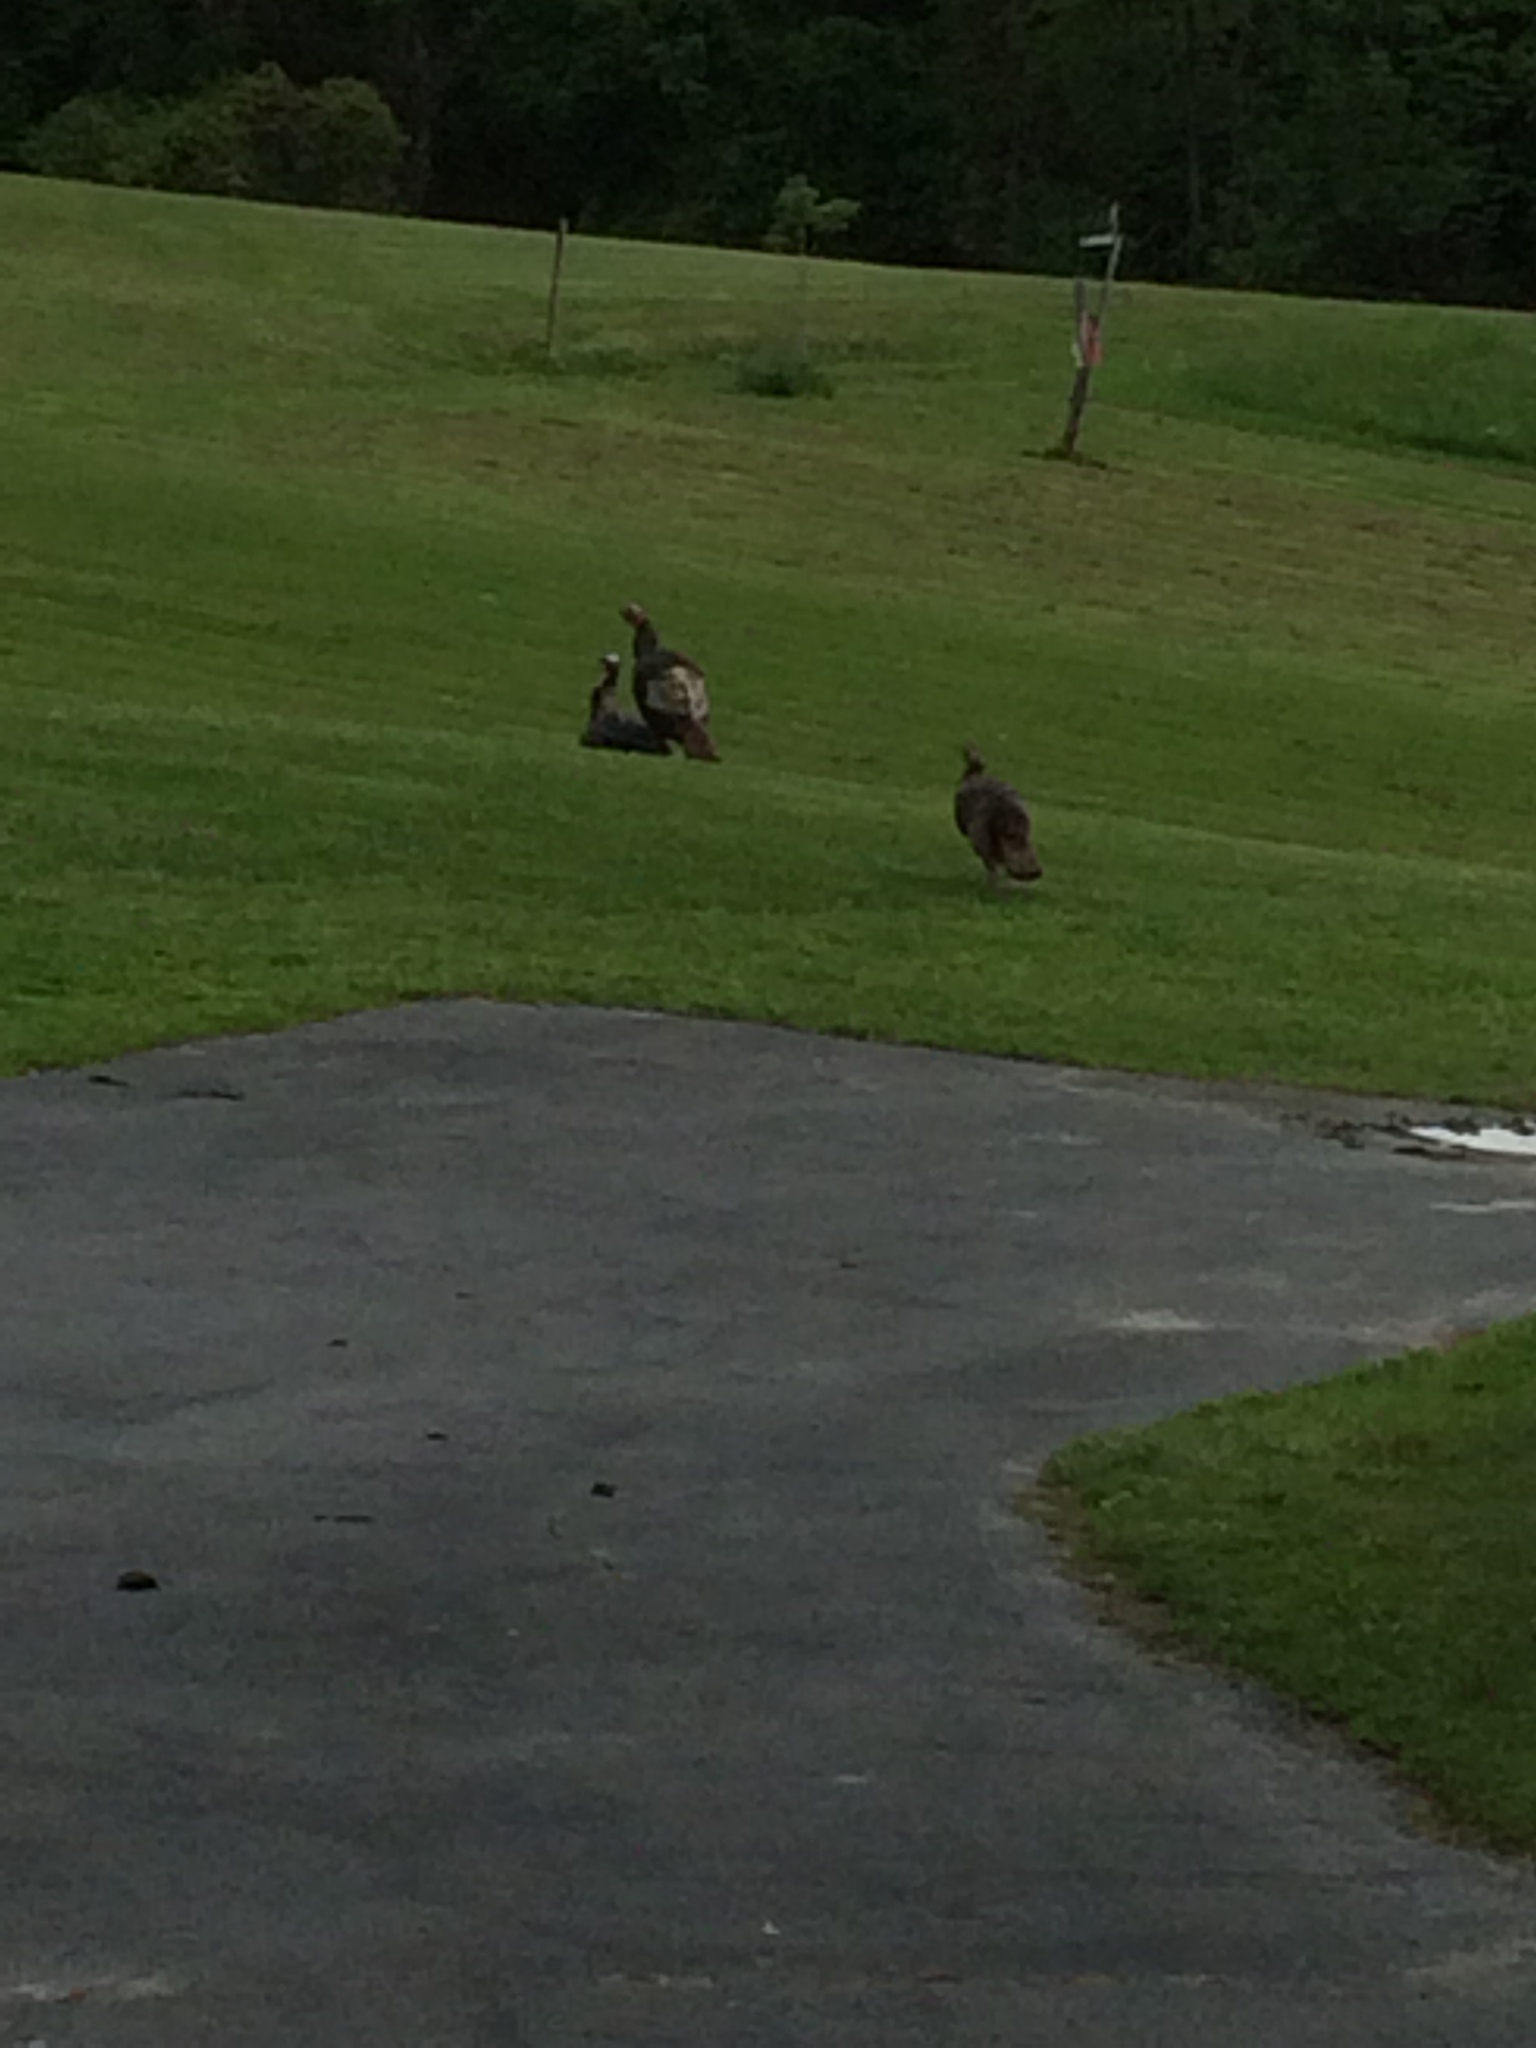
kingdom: Animalia
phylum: Chordata
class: Aves
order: Galliformes
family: Phasianidae
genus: Meleagris
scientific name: Meleagris gallopavo
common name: Wild turkey
